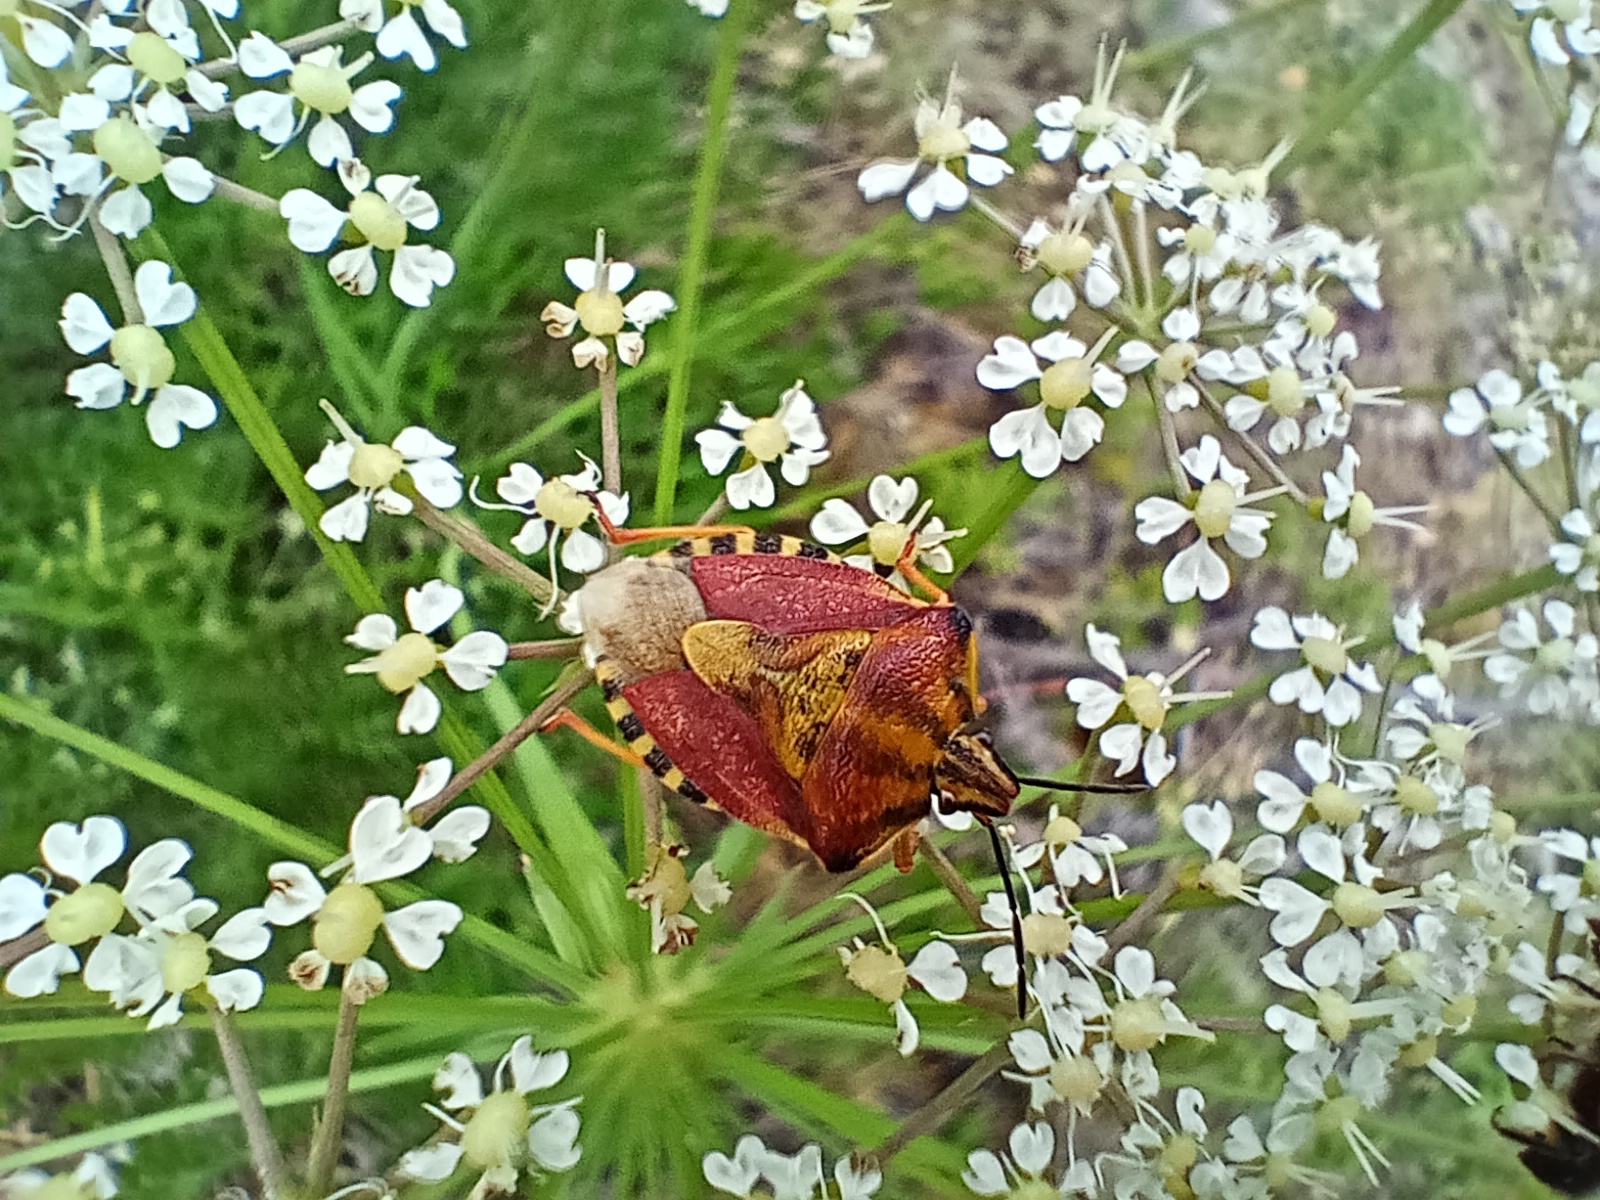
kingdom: Animalia
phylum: Arthropoda
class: Insecta
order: Hemiptera
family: Pentatomidae
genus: Carpocoris
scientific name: Carpocoris purpureipennis
